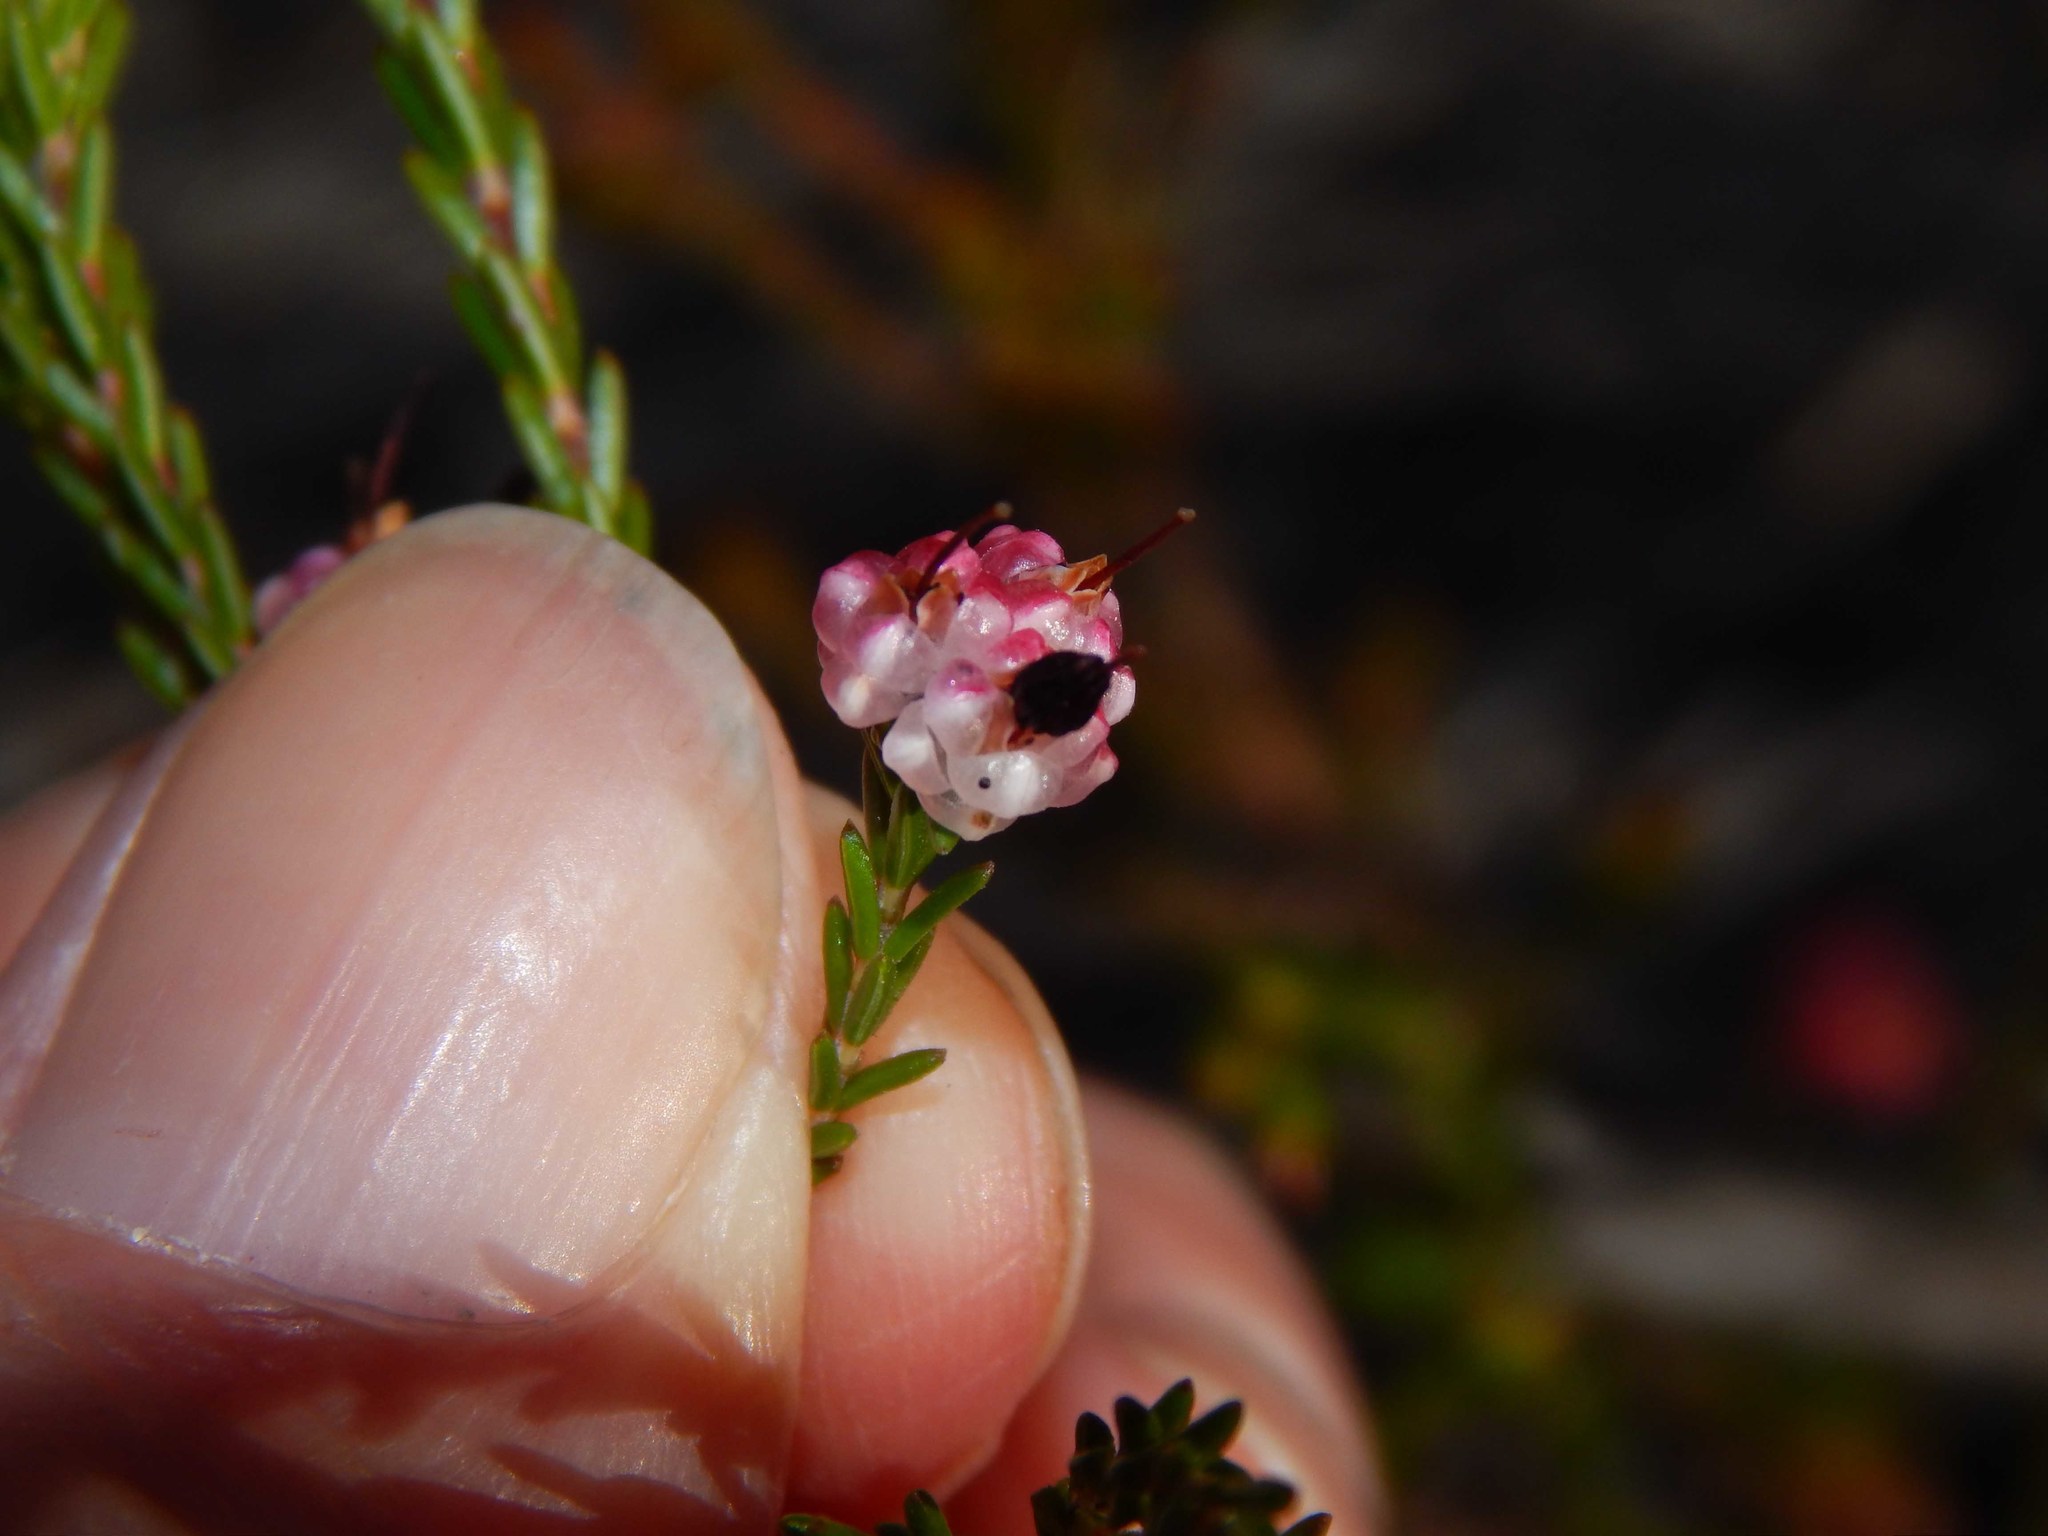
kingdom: Plantae
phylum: Tracheophyta
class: Magnoliopsida
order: Ericales
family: Ericaceae
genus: Erica
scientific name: Erica spumosa
